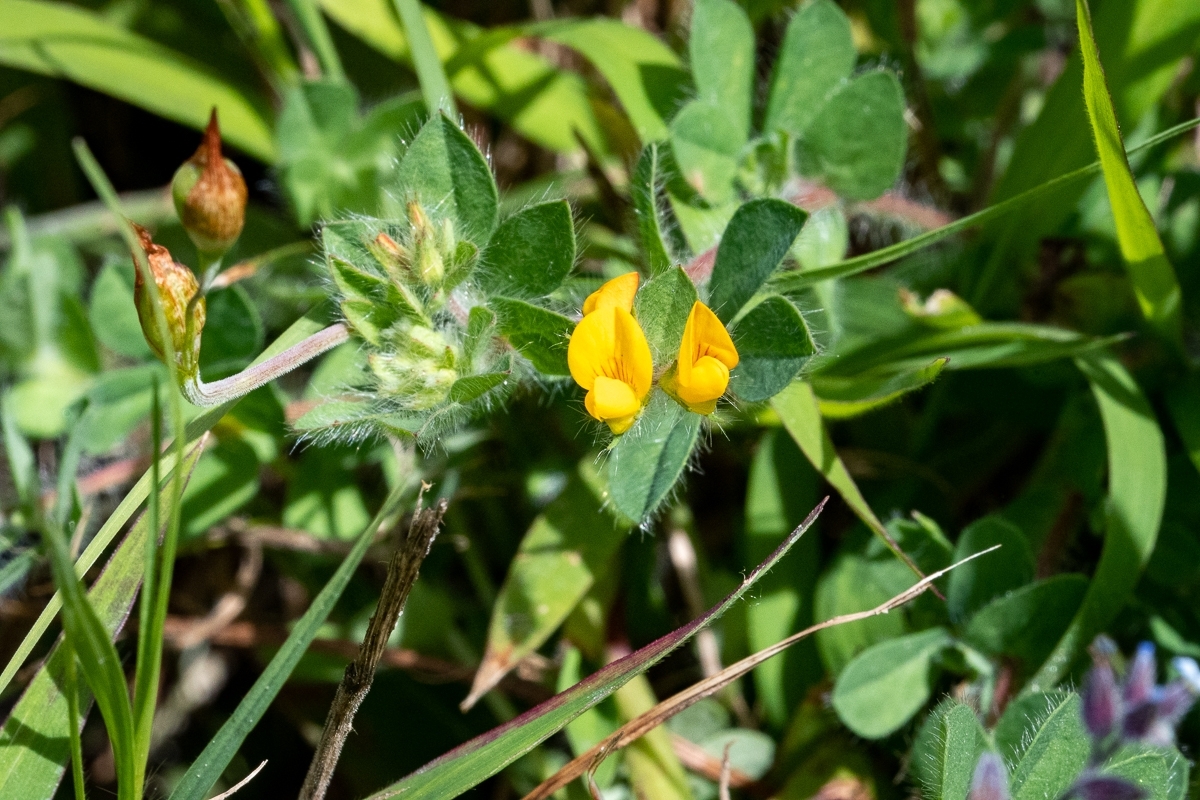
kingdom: Plantae
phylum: Tracheophyta
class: Magnoliopsida
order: Fabales
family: Fabaceae
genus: Lotus
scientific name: Lotus subbiflorus
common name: Hairy bird's-foot trefoil
